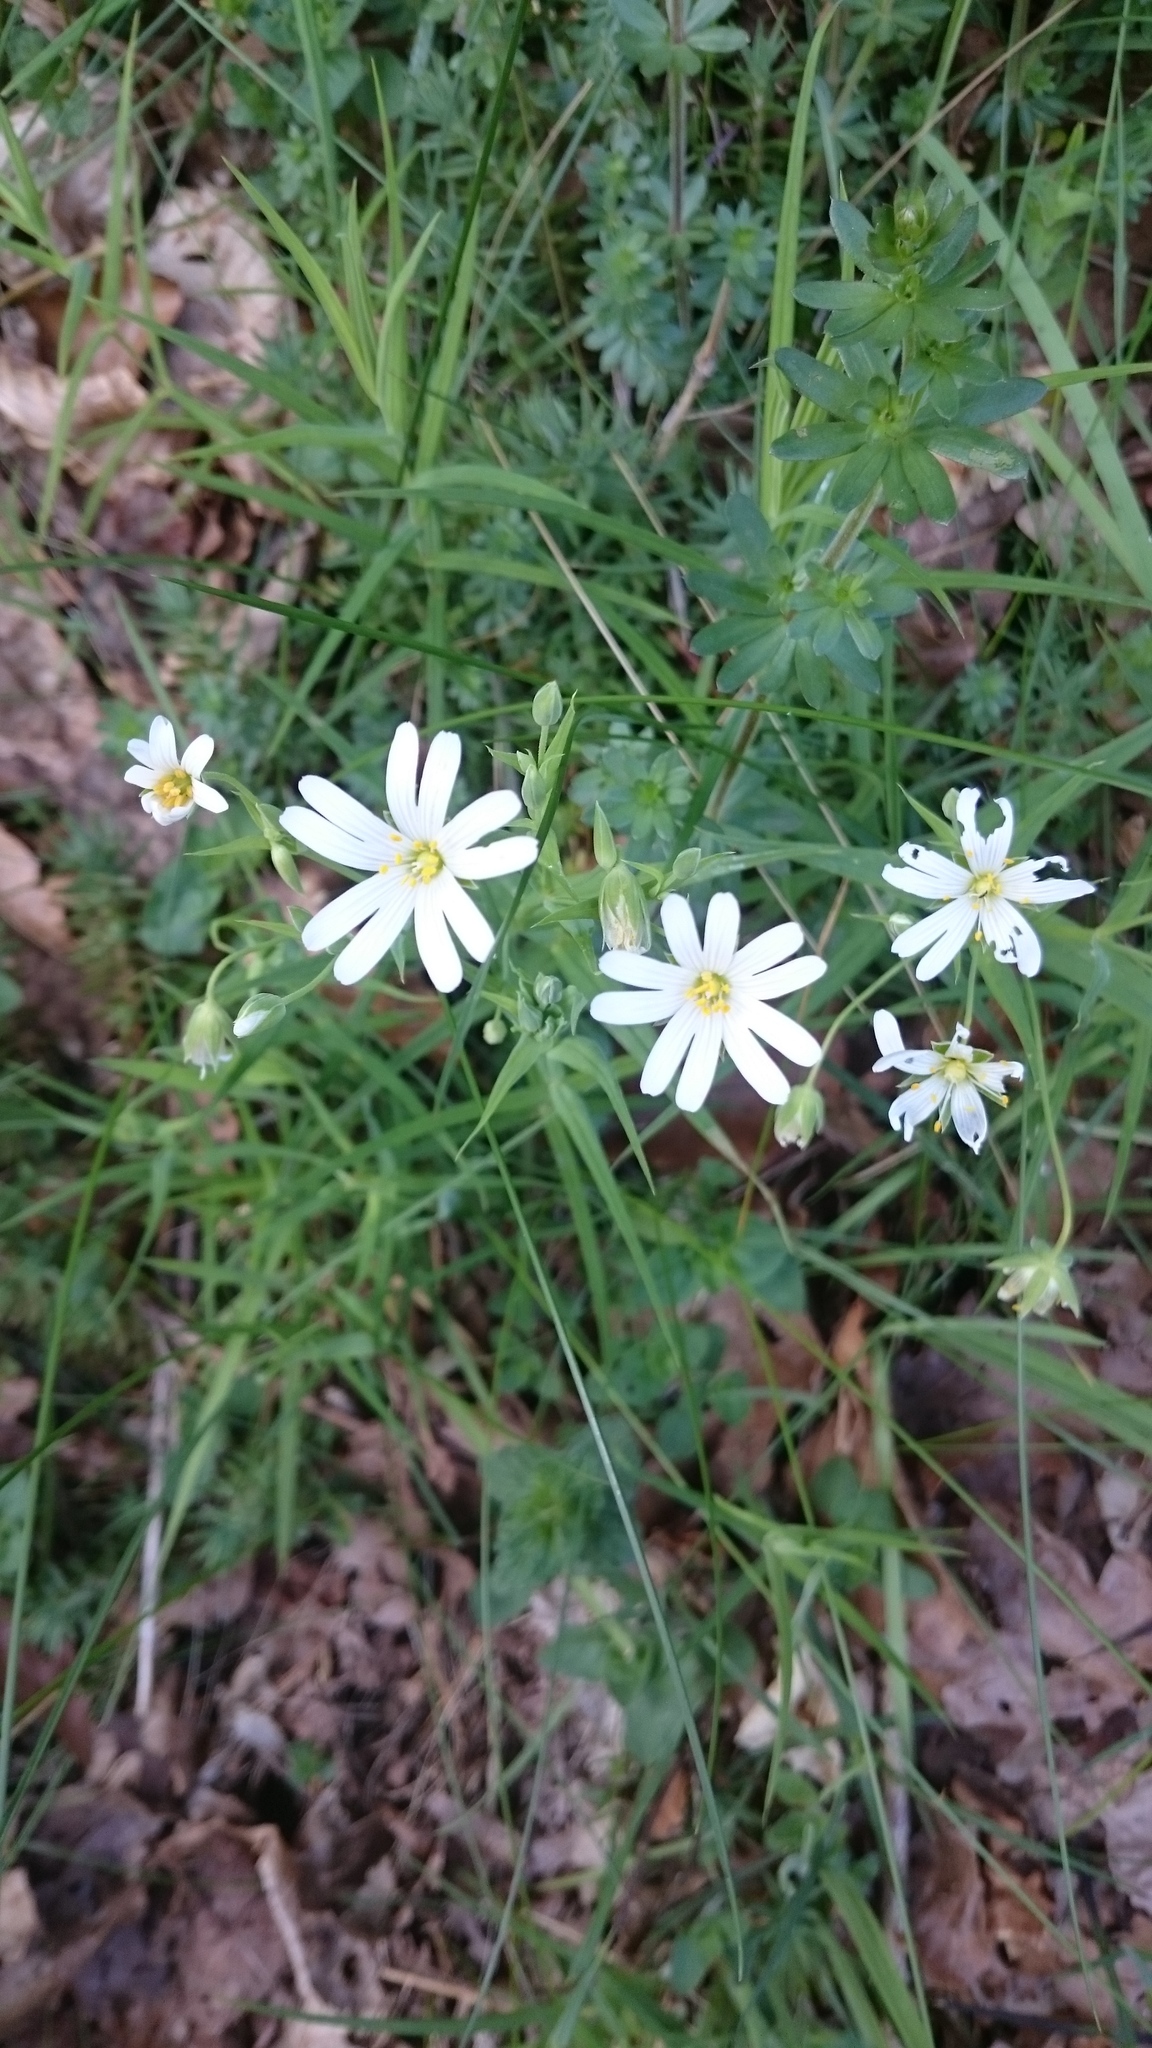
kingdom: Plantae
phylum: Tracheophyta
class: Magnoliopsida
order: Caryophyllales
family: Caryophyllaceae
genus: Rabelera
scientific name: Rabelera holostea
